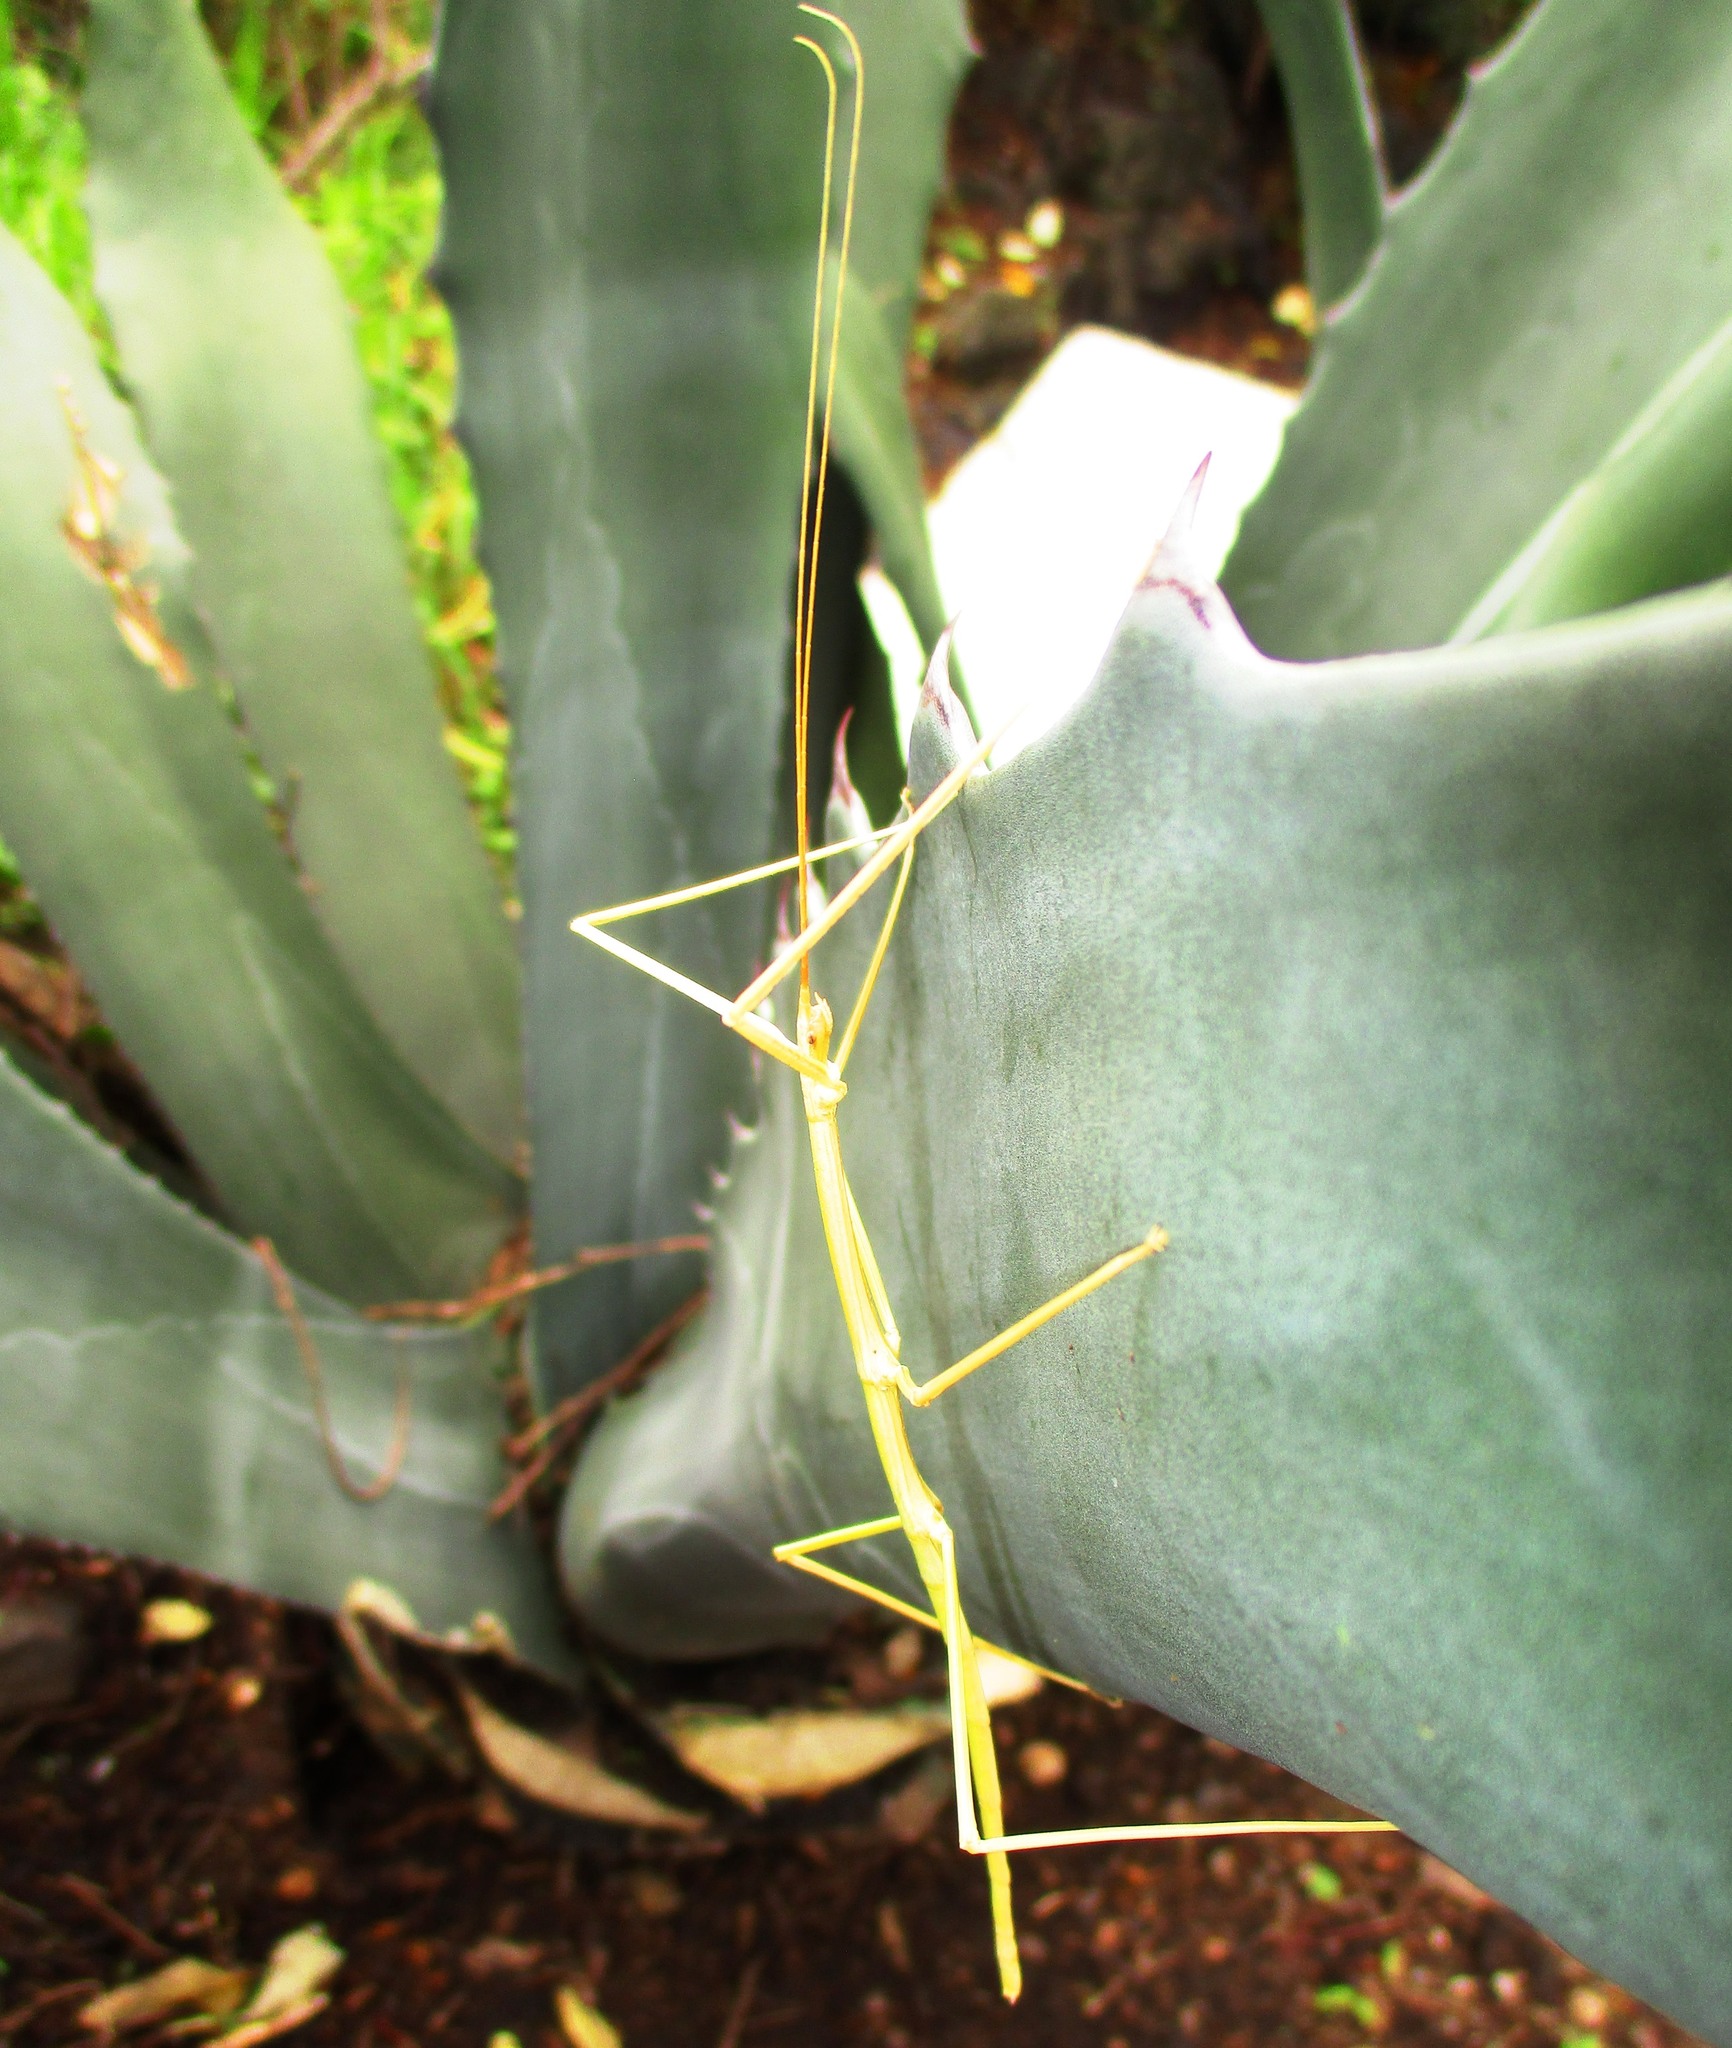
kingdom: Animalia
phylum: Arthropoda
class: Insecta
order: Phasmida
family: Diapheromeridae
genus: Pseudosermyle
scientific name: Pseudosermyle strigiceps
